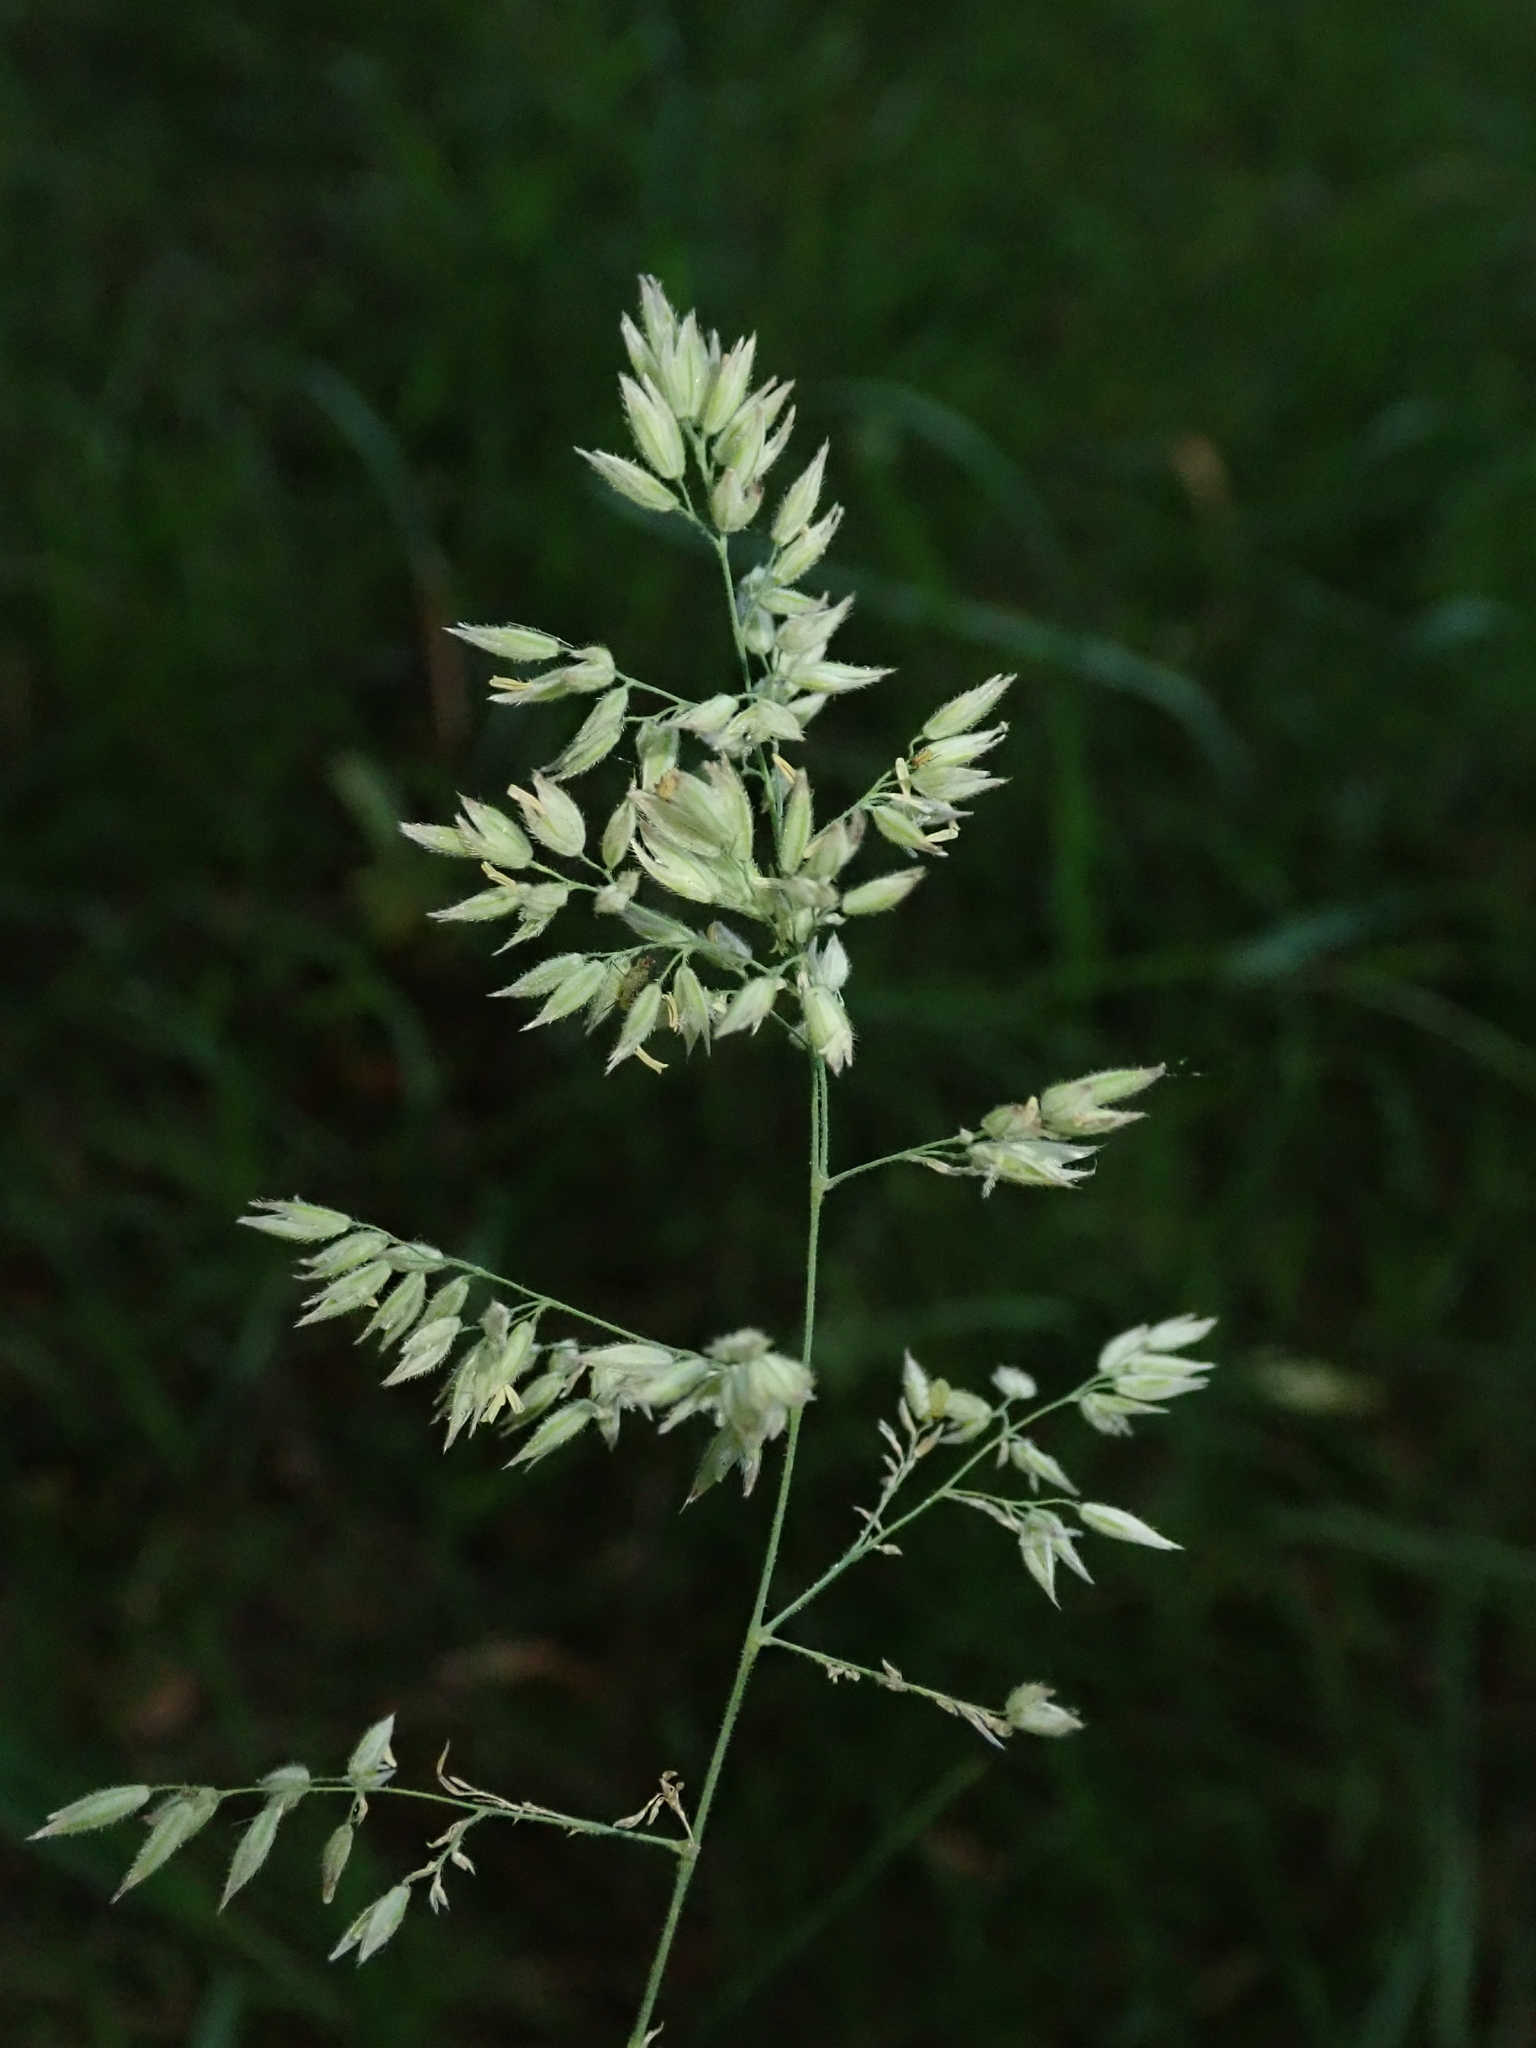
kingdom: Plantae
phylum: Tracheophyta
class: Liliopsida
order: Poales
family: Poaceae
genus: Holcus
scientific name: Holcus lanatus
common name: Yorkshire-fog
